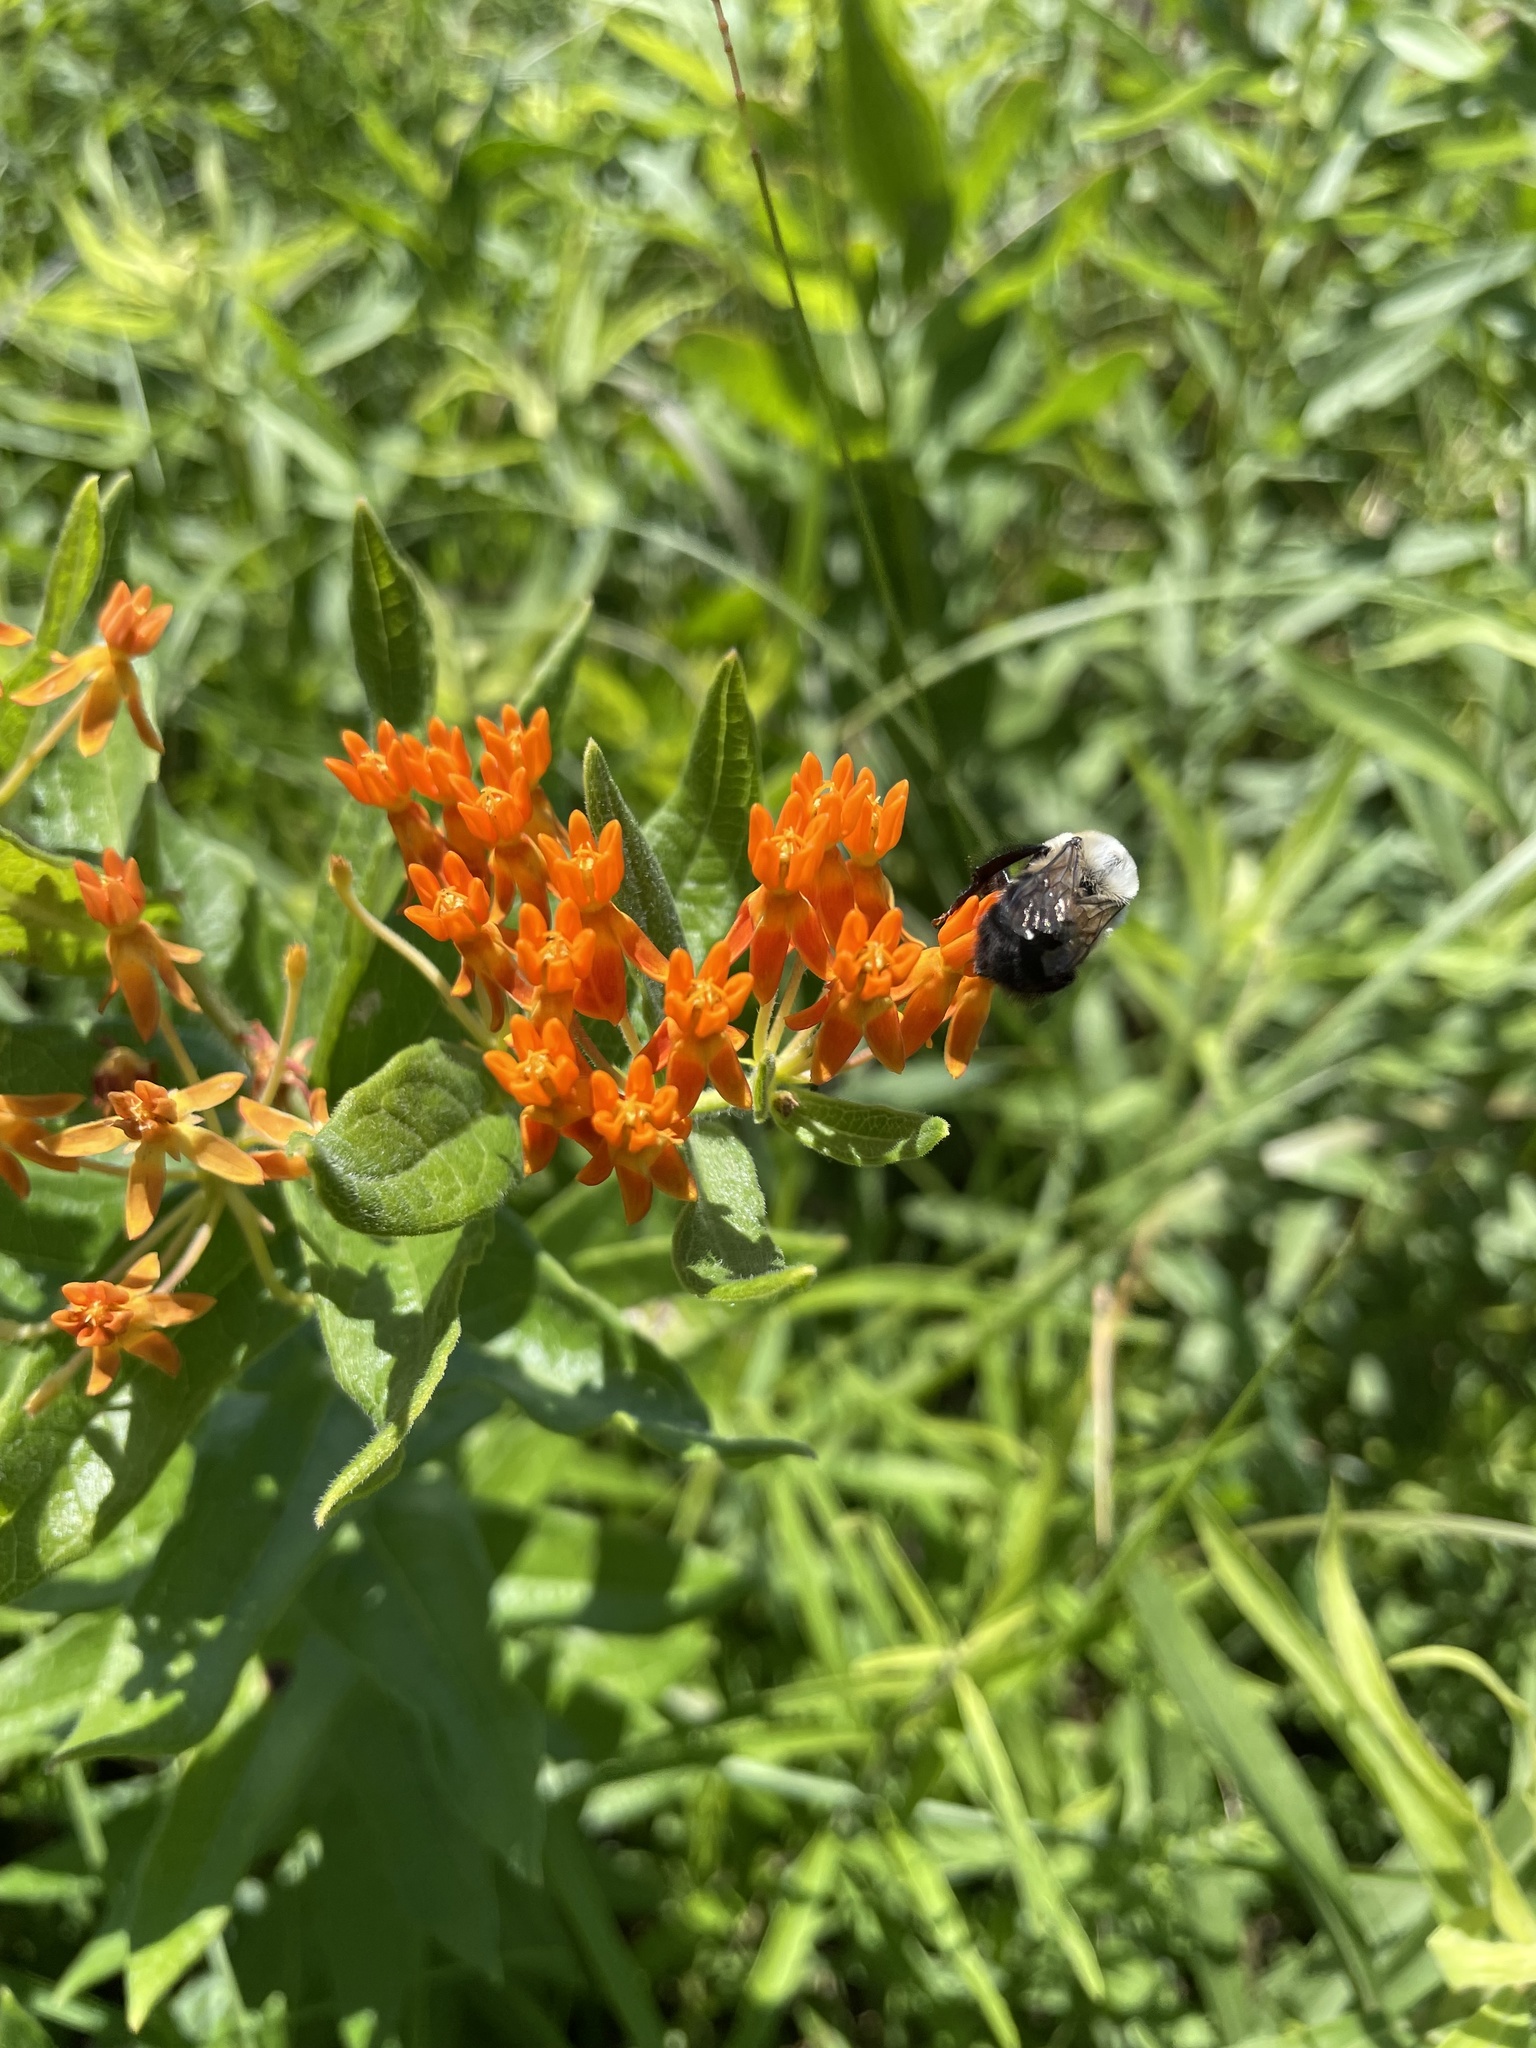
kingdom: Animalia
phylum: Arthropoda
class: Insecta
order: Hymenoptera
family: Apidae
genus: Bombus
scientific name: Bombus griseocollis
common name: Brown-belted bumble bee
